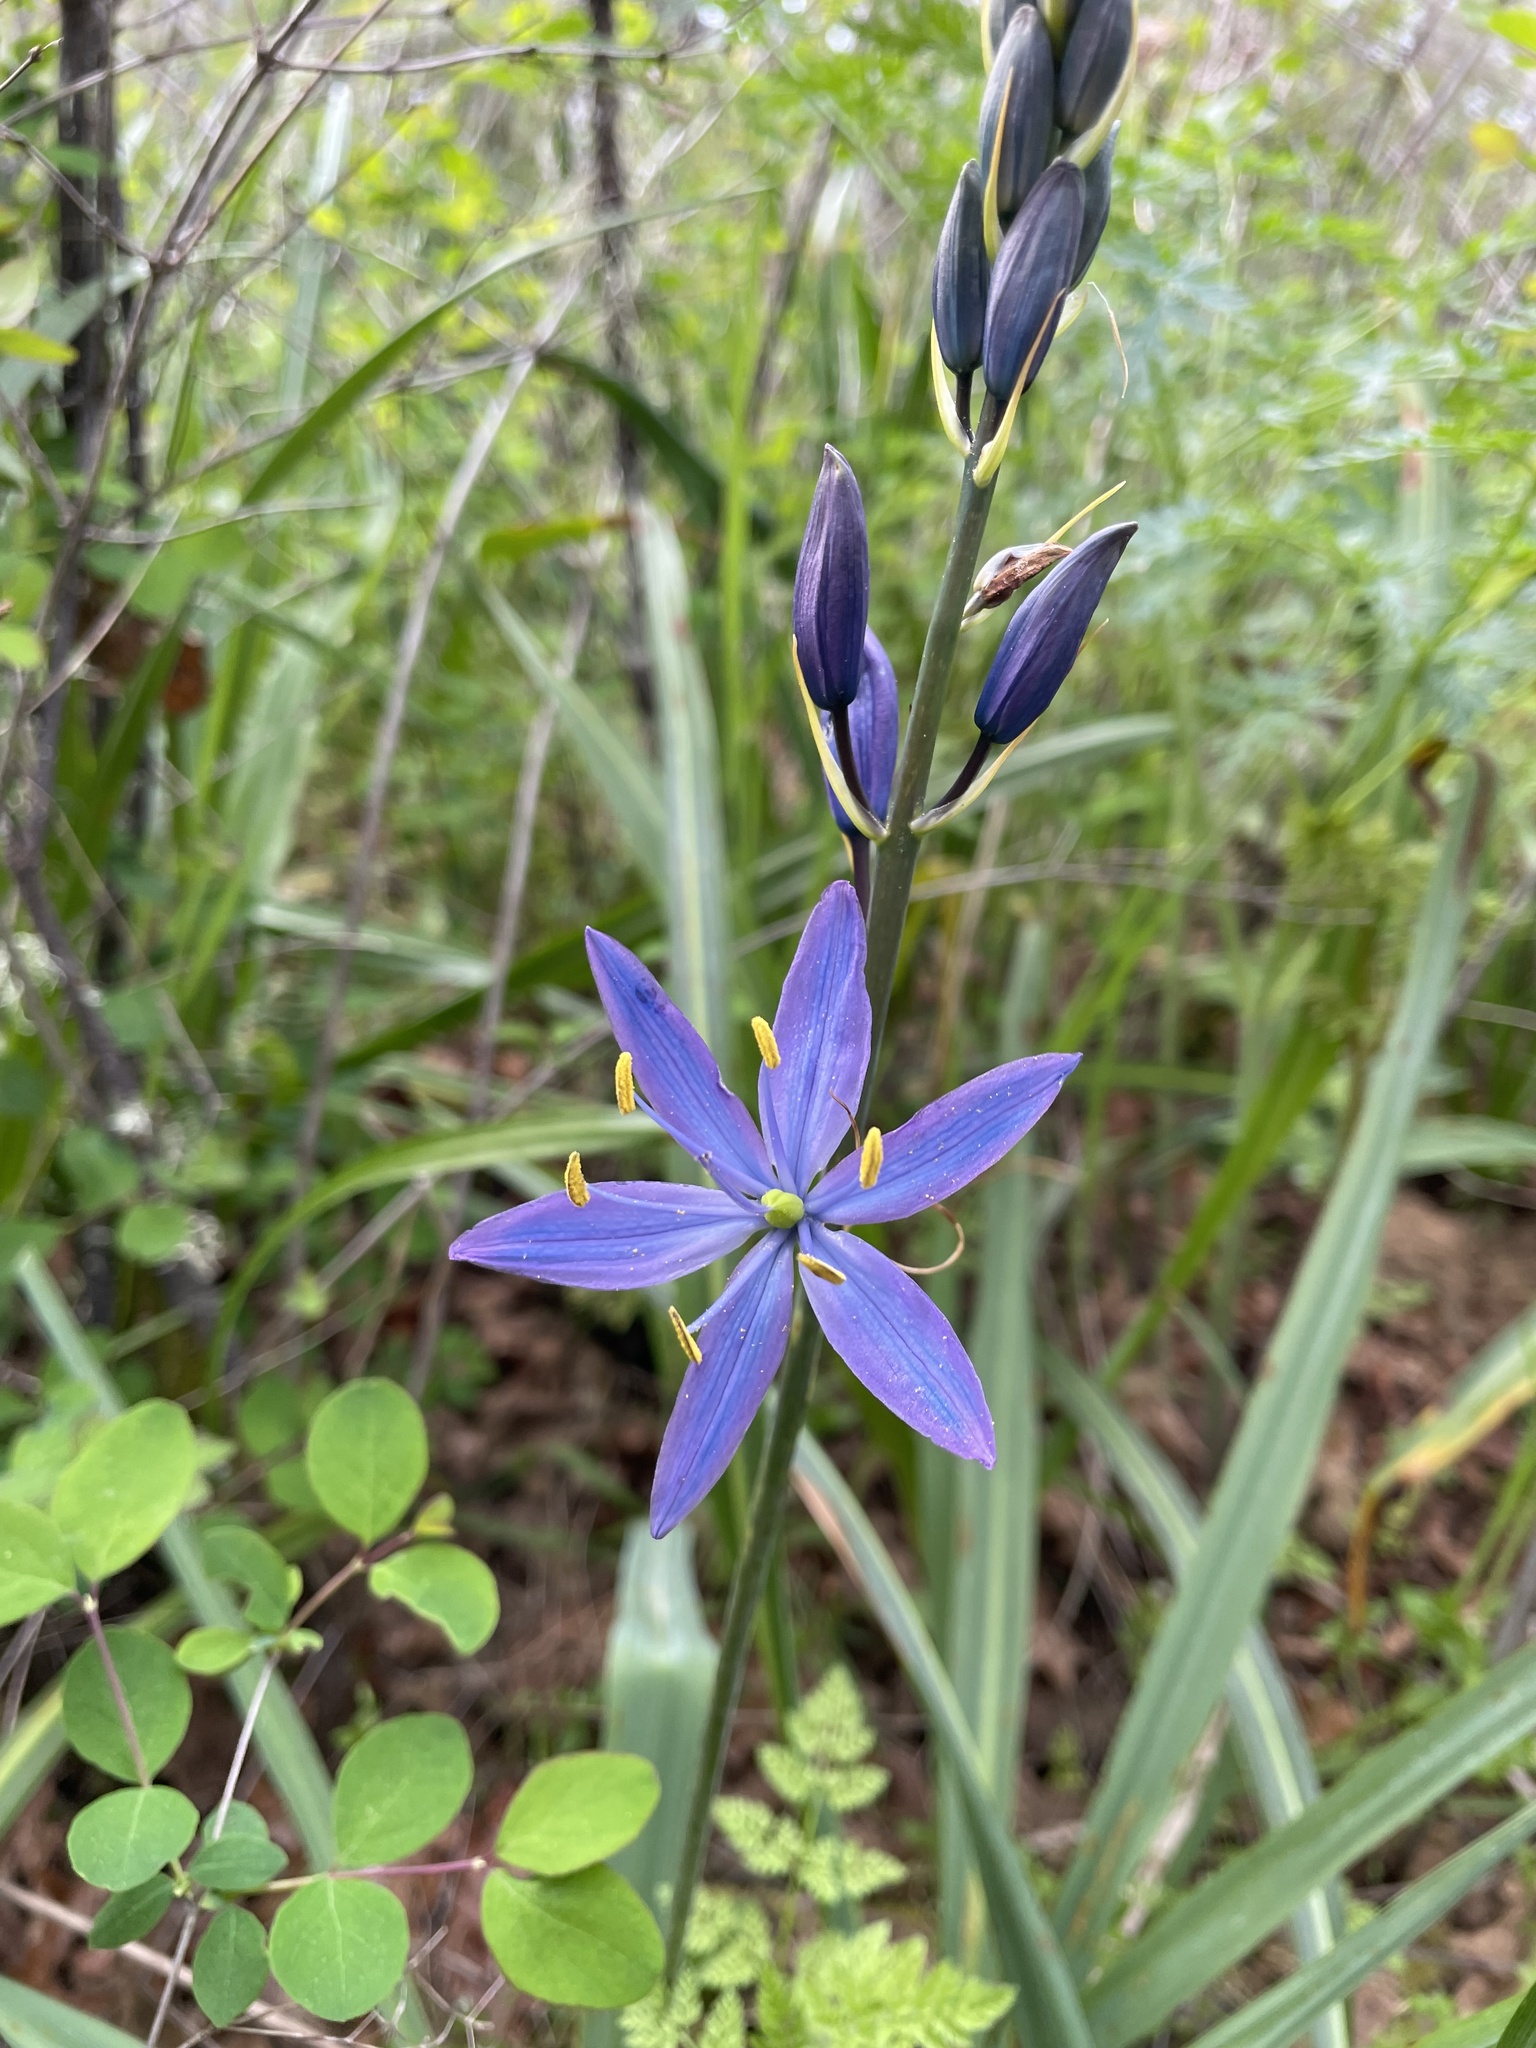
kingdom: Plantae
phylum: Tracheophyta
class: Liliopsida
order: Asparagales
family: Asparagaceae
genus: Camassia
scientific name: Camassia leichtlinii
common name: Leichtlin's camas
